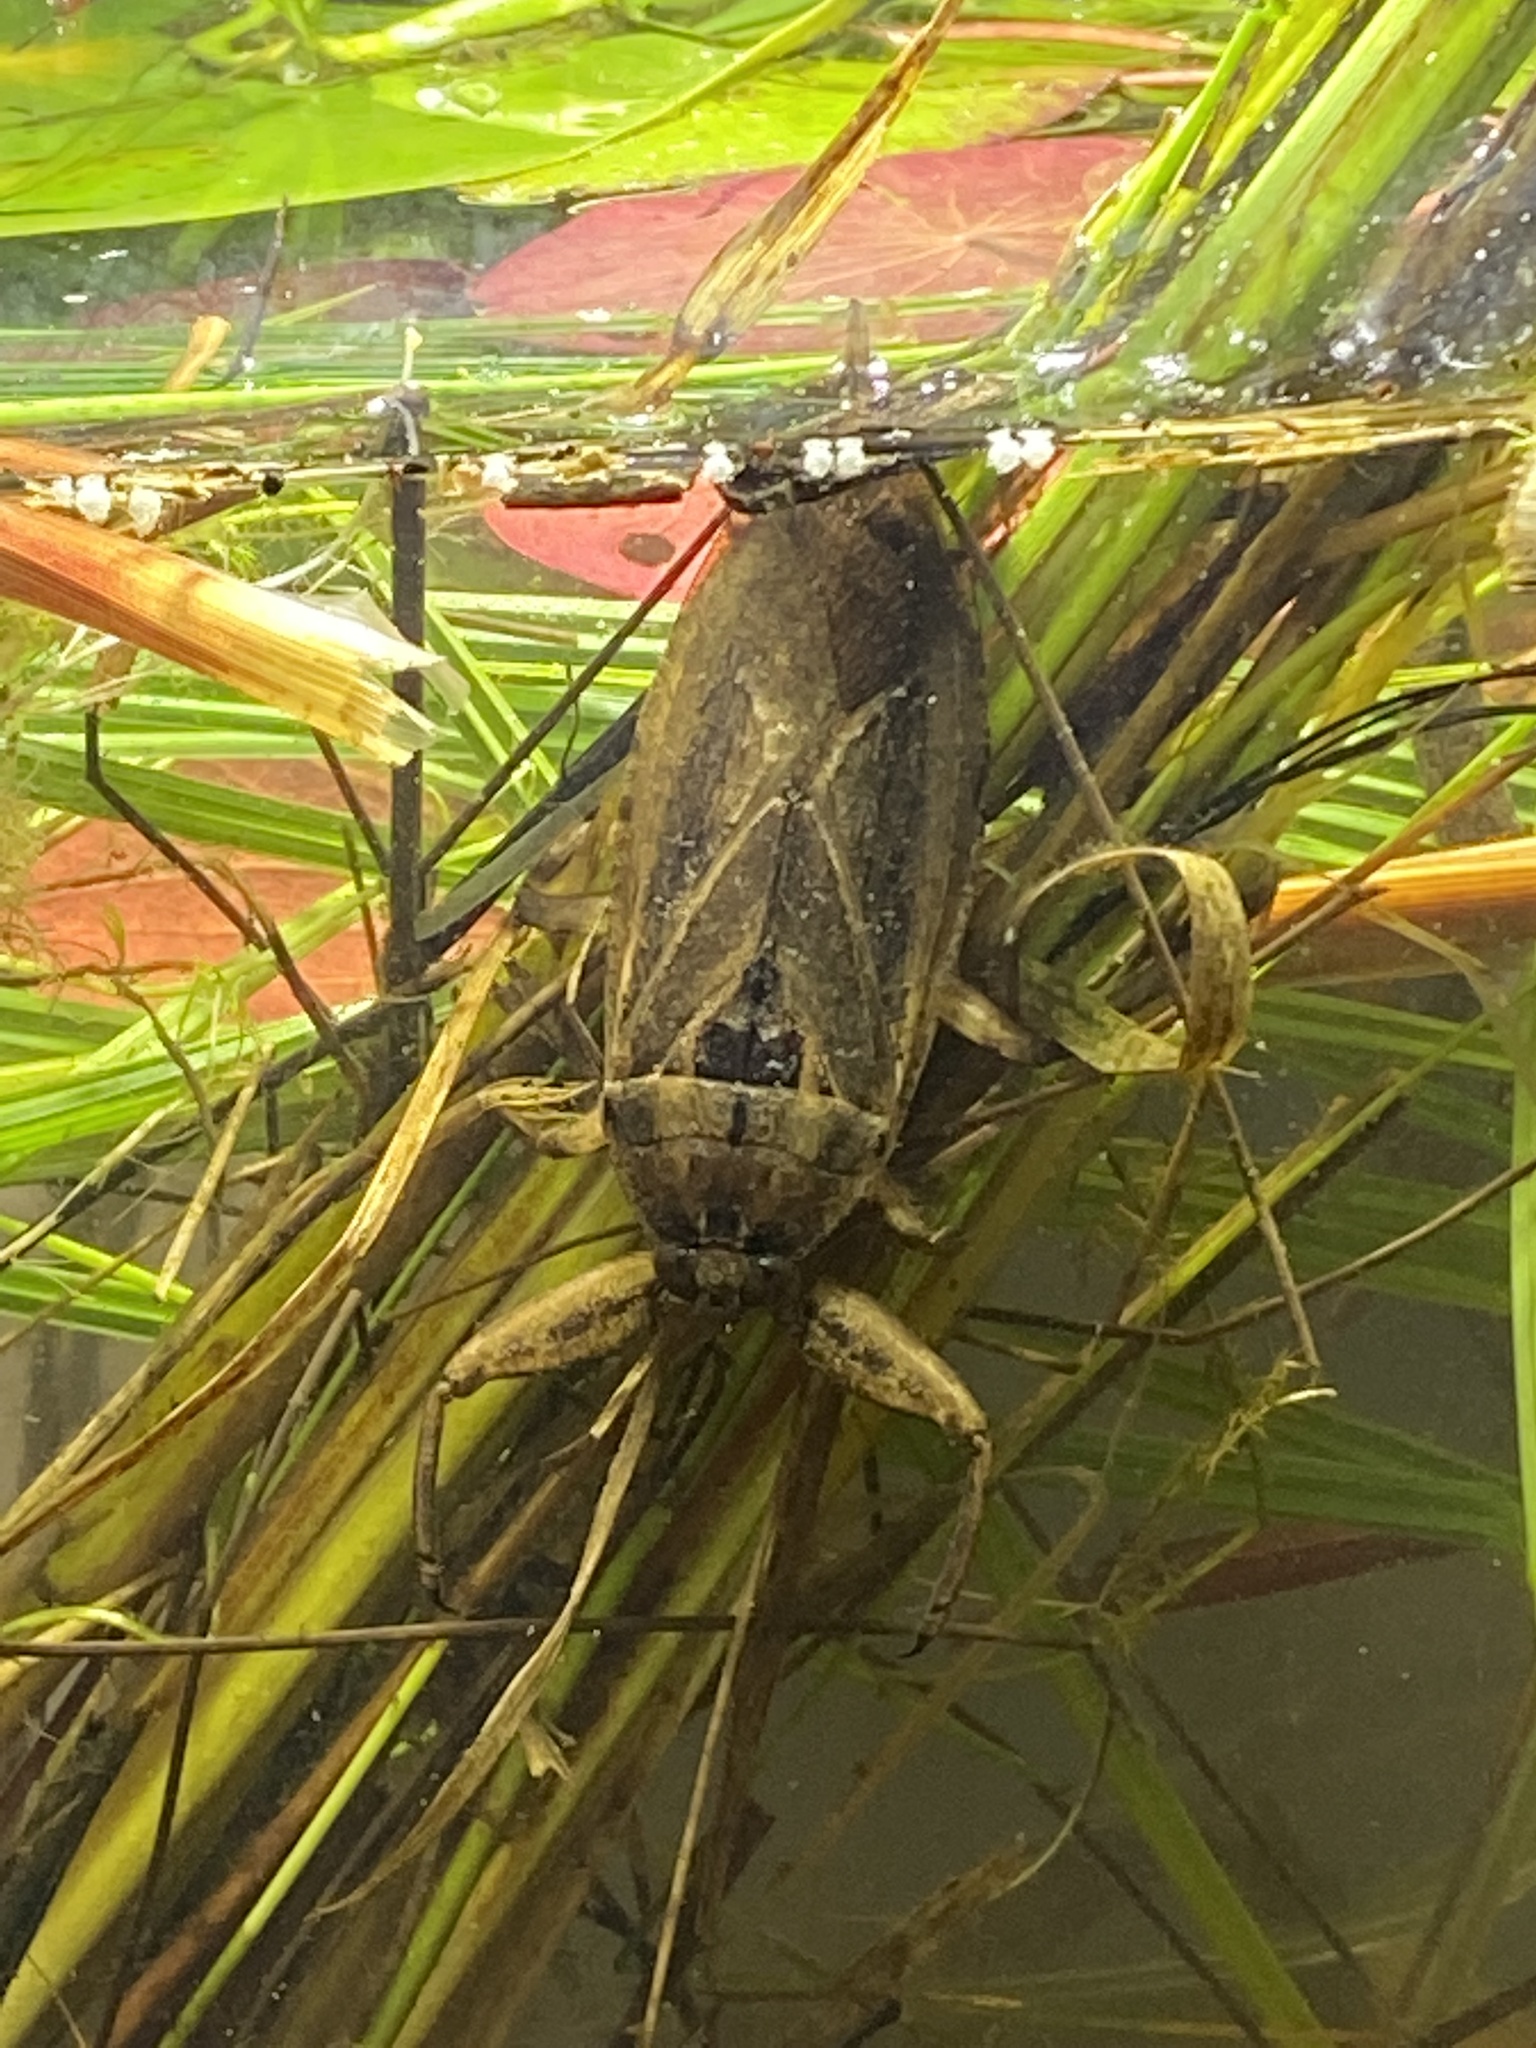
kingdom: Animalia
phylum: Arthropoda
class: Insecta
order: Hemiptera
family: Belostomatidae
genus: Lethocerus
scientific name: Lethocerus americanus
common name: Giant water bug
